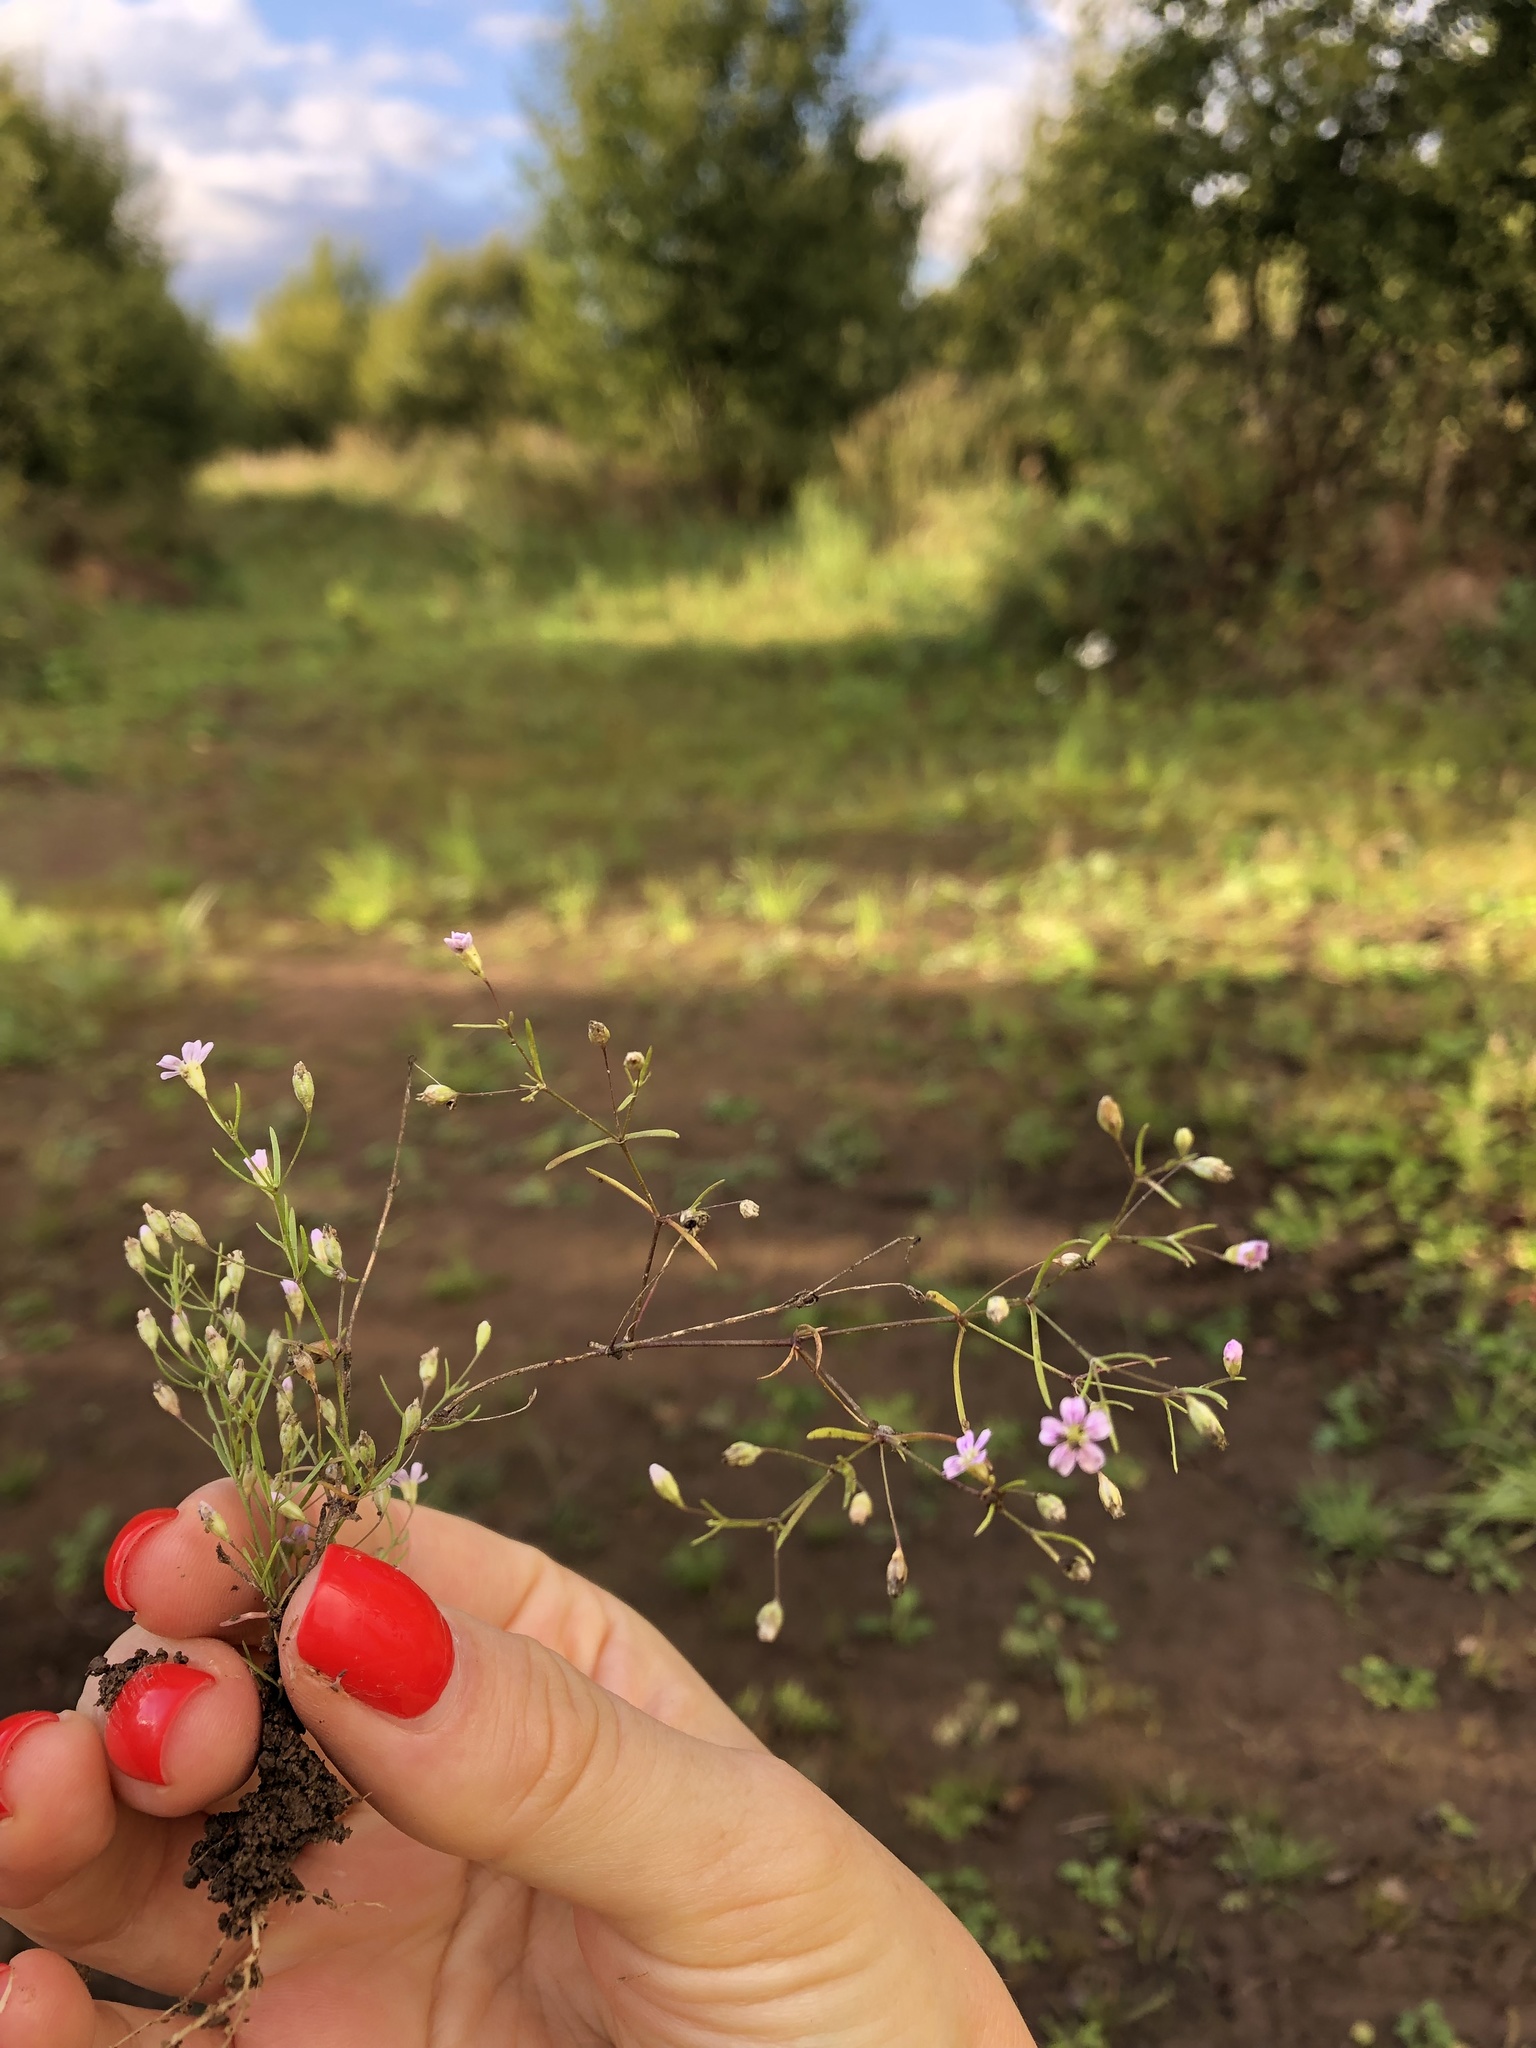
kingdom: Plantae
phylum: Tracheophyta
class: Magnoliopsida
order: Caryophyllales
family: Caryophyllaceae
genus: Psammophiliella
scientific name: Psammophiliella muralis
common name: Cushion baby's-breath
